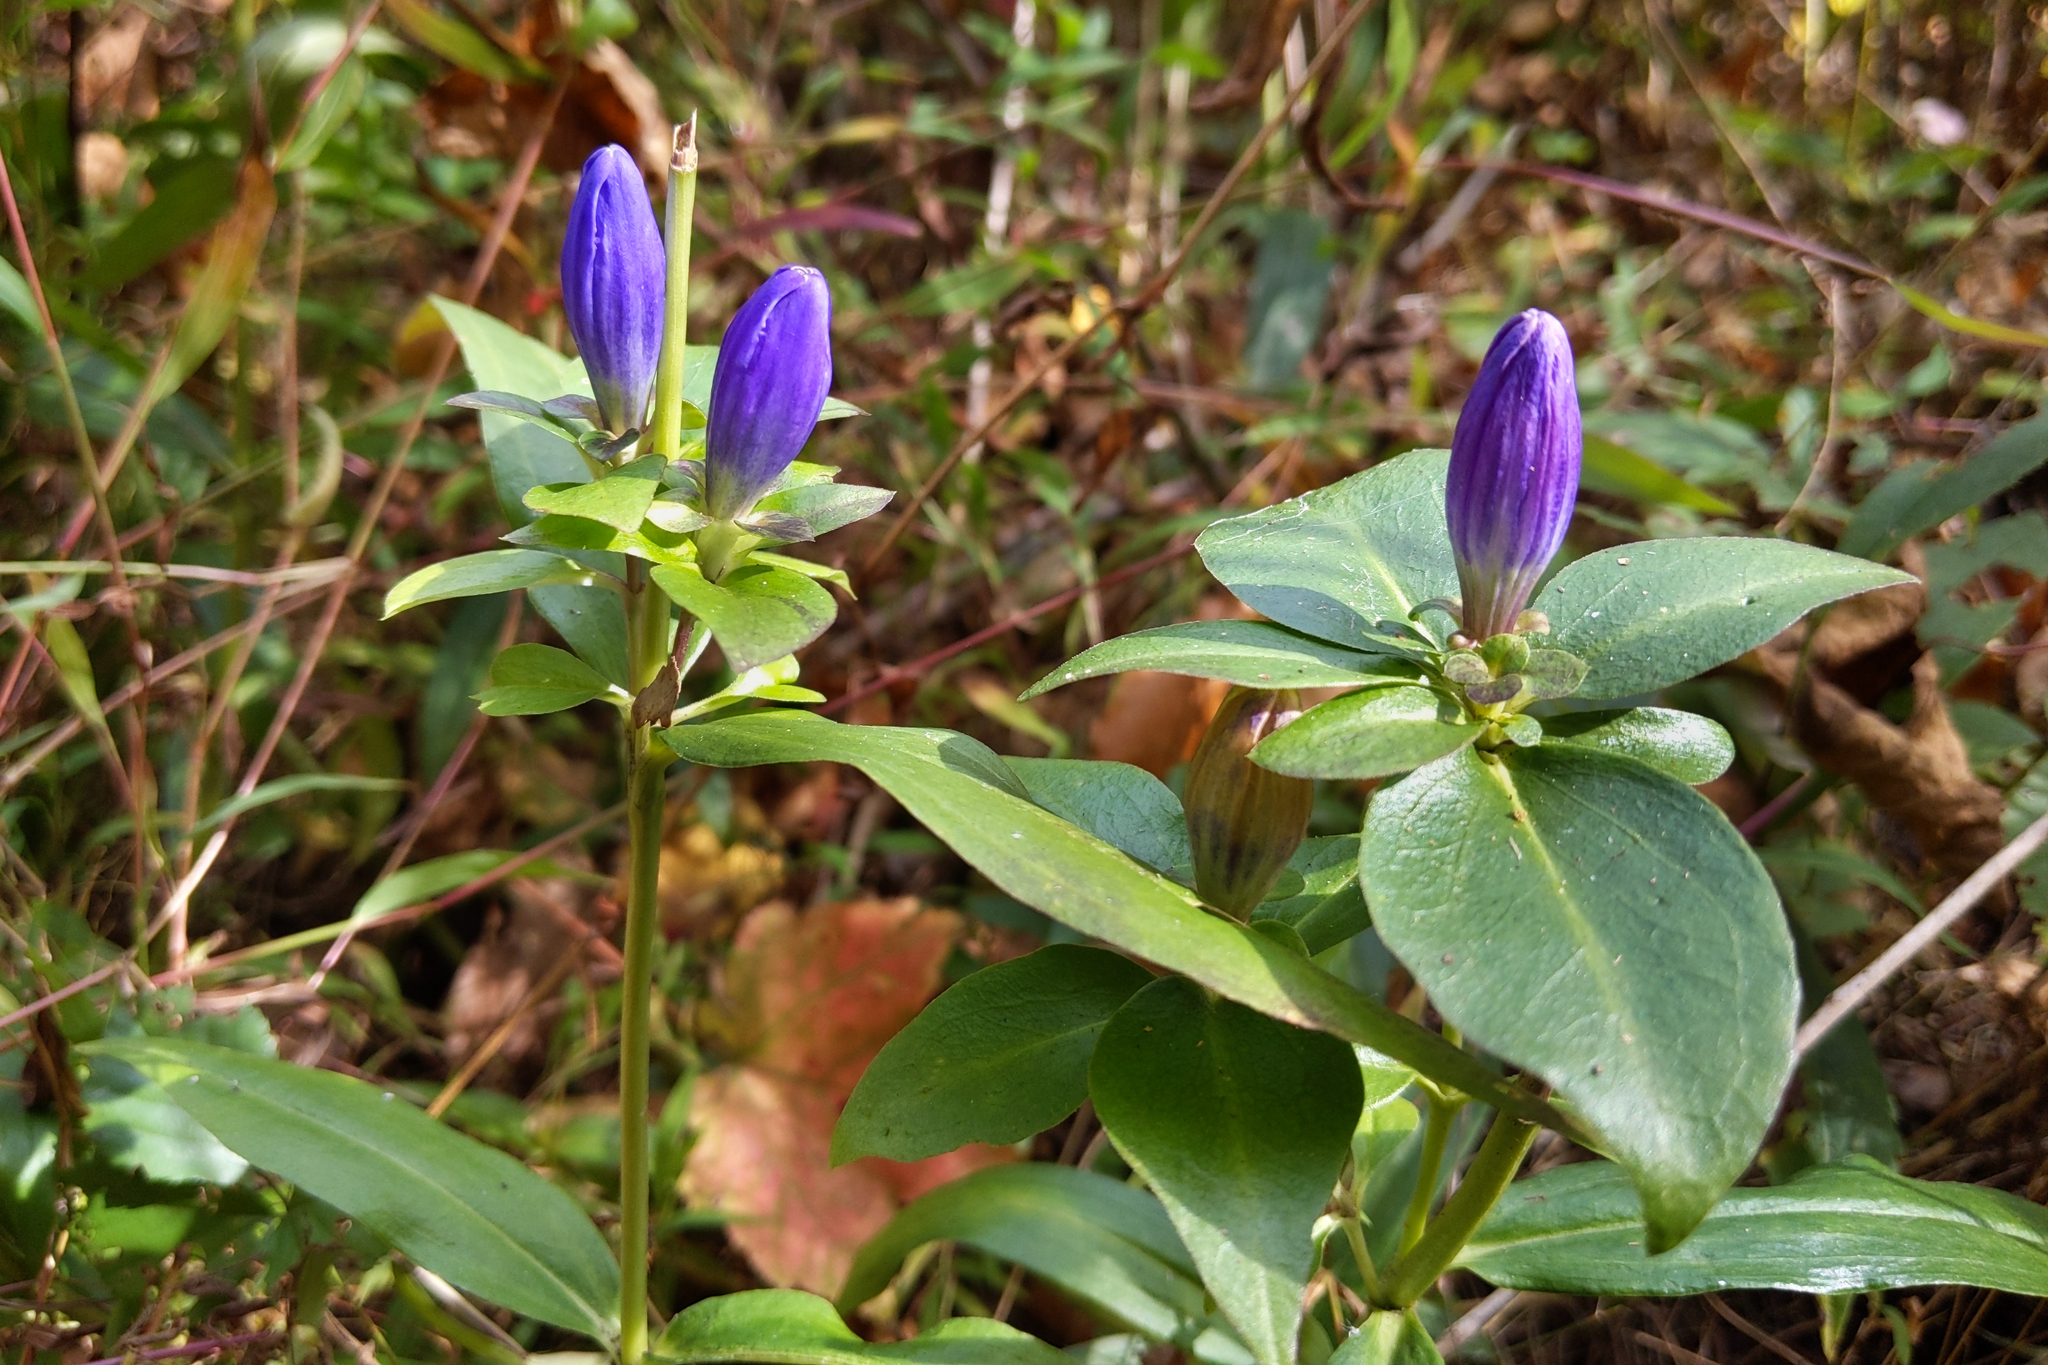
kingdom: Plantae
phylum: Tracheophyta
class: Magnoliopsida
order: Gentianales
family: Gentianaceae
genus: Gentiana
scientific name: Gentiana clausa
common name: Blind gentian
